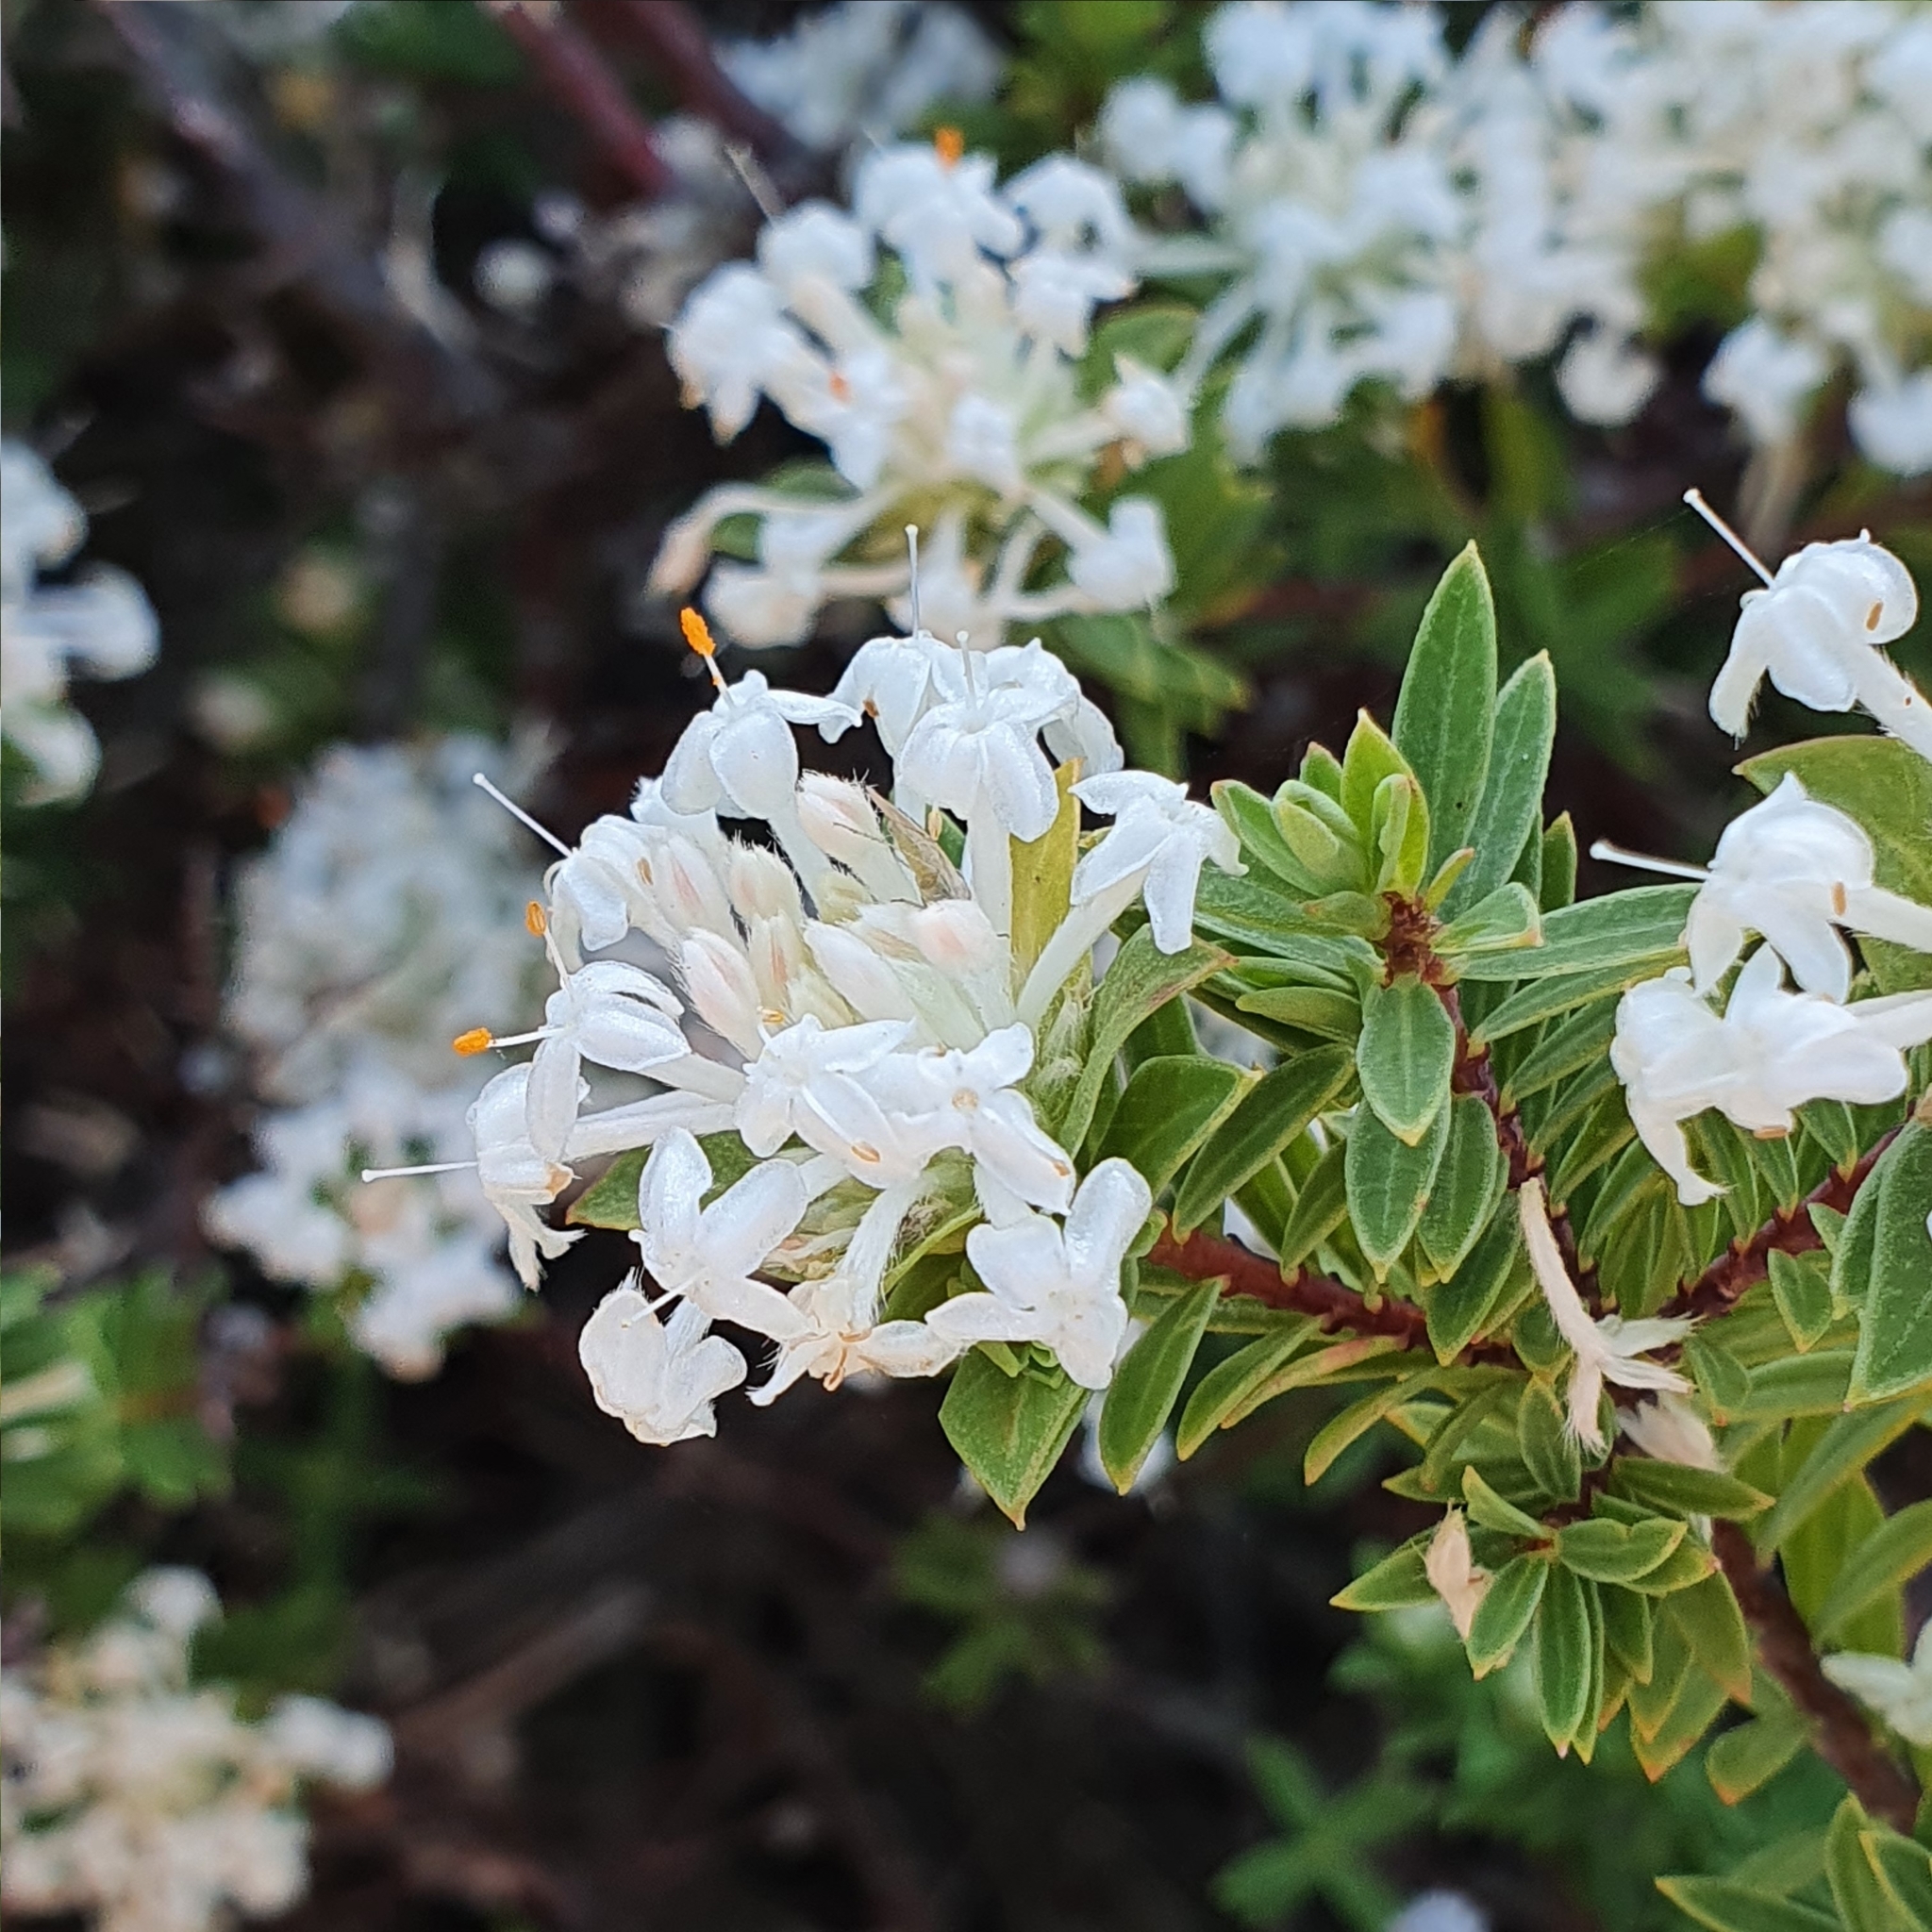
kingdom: Plantae
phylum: Tracheophyta
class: Magnoliopsida
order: Malvales
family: Thymelaeaceae
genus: Pimelea
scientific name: Pimelea linifolia
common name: Queen-of-the-bush
